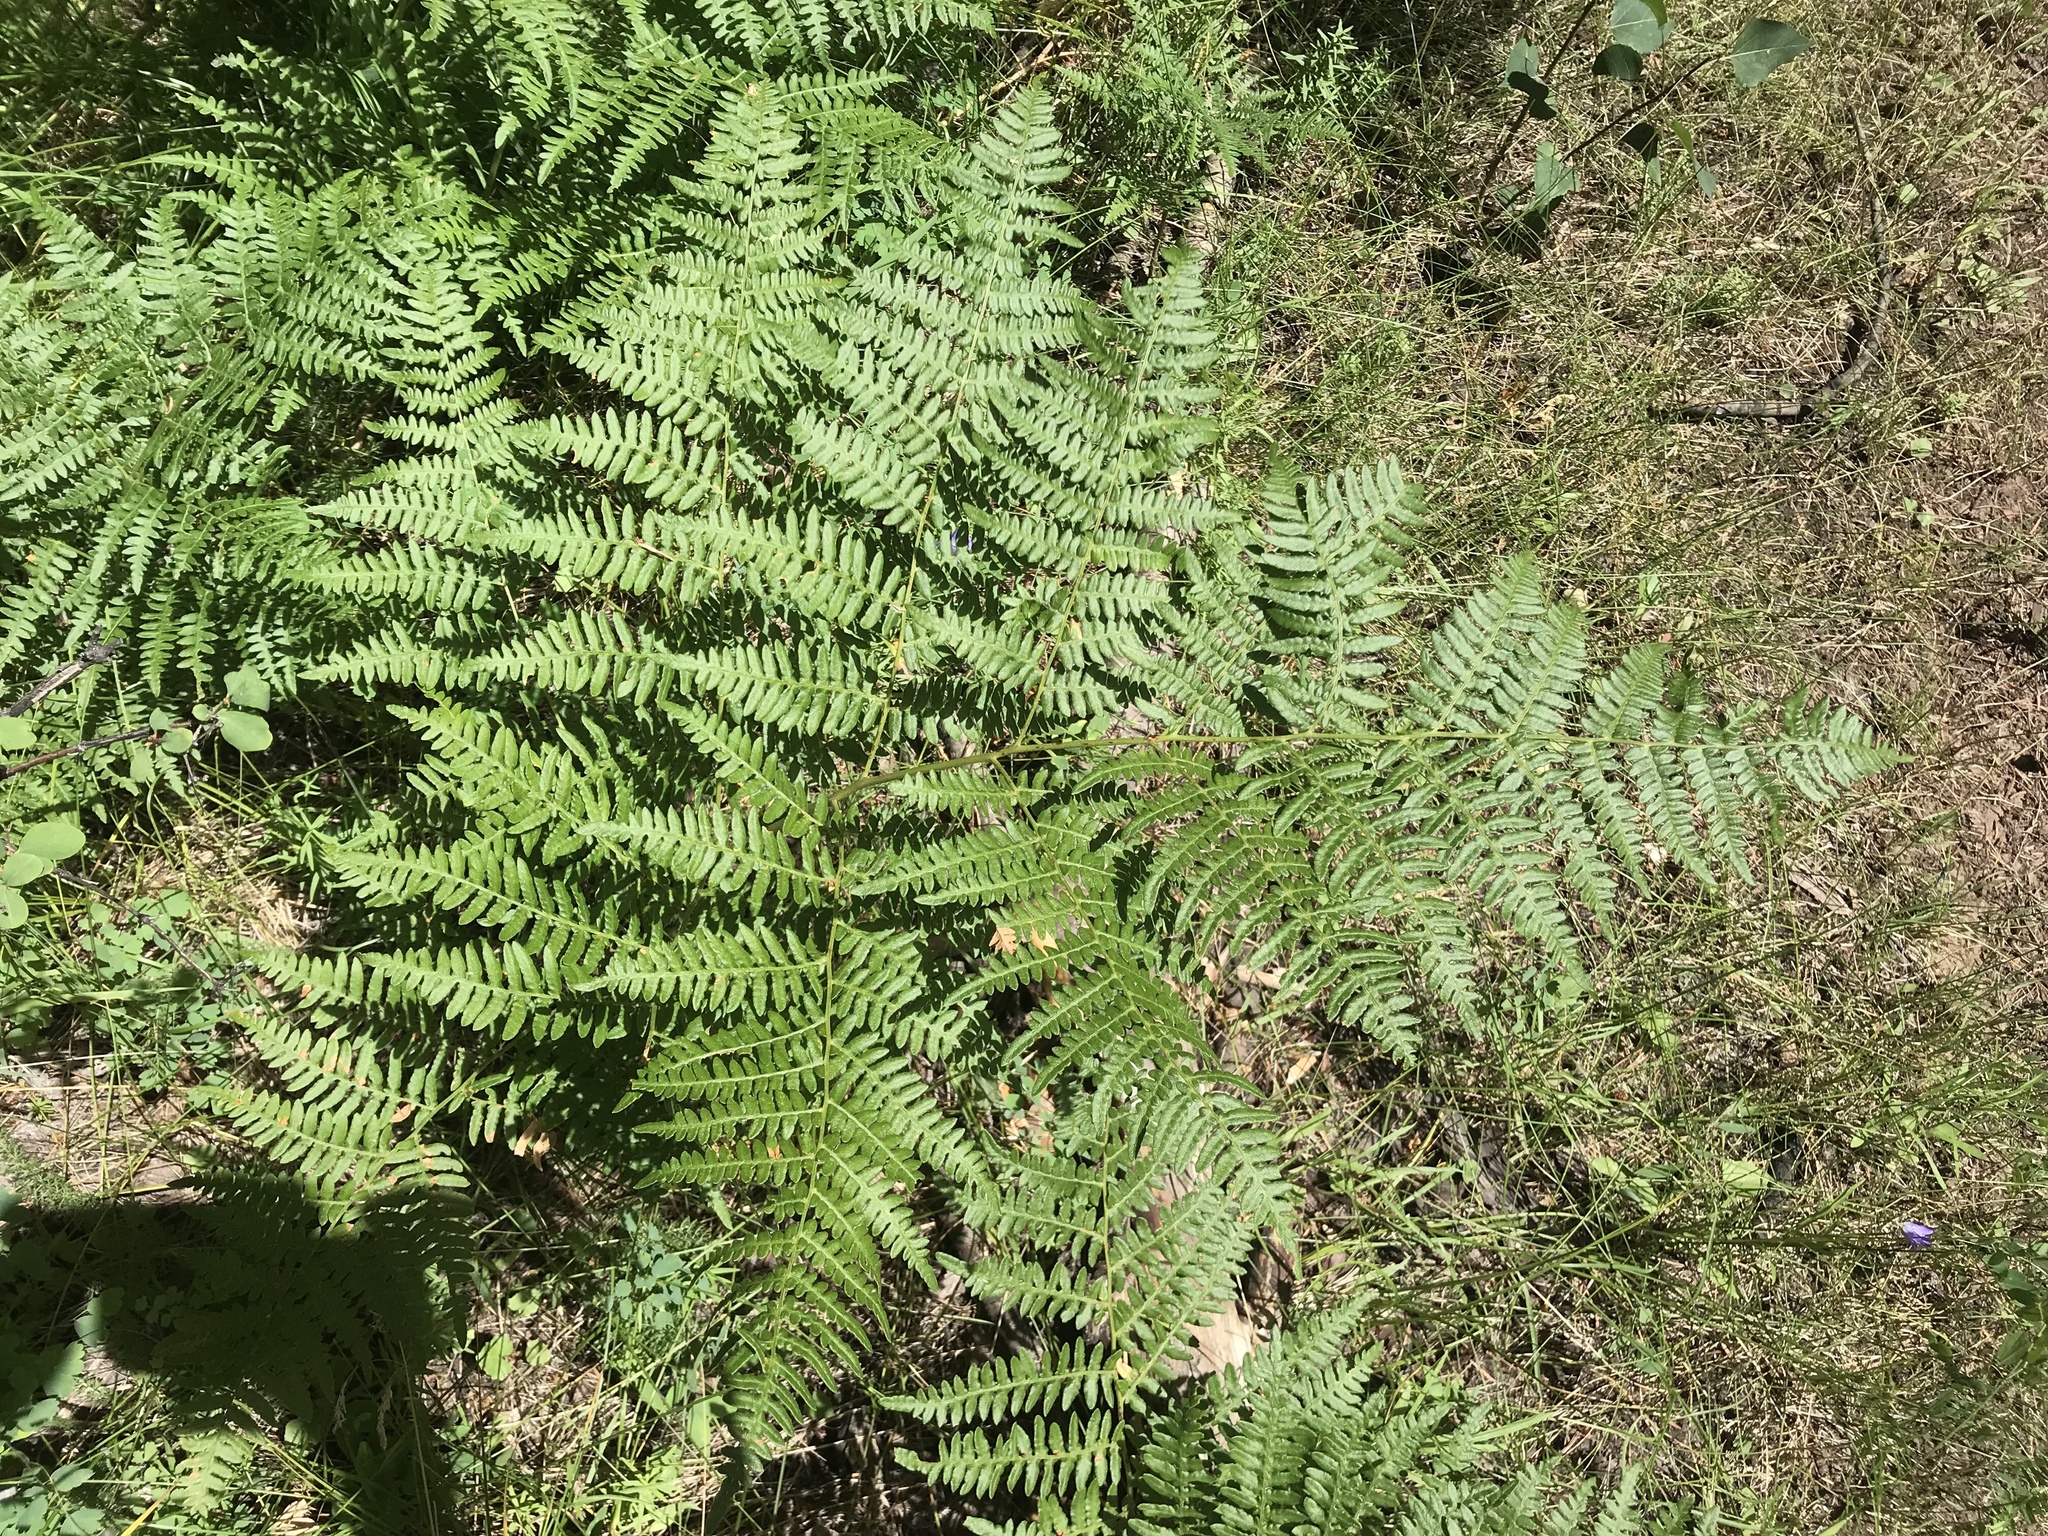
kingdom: Plantae
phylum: Tracheophyta
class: Polypodiopsida
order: Polypodiales
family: Dennstaedtiaceae
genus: Pteridium
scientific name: Pteridium aquilinum
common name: Bracken
